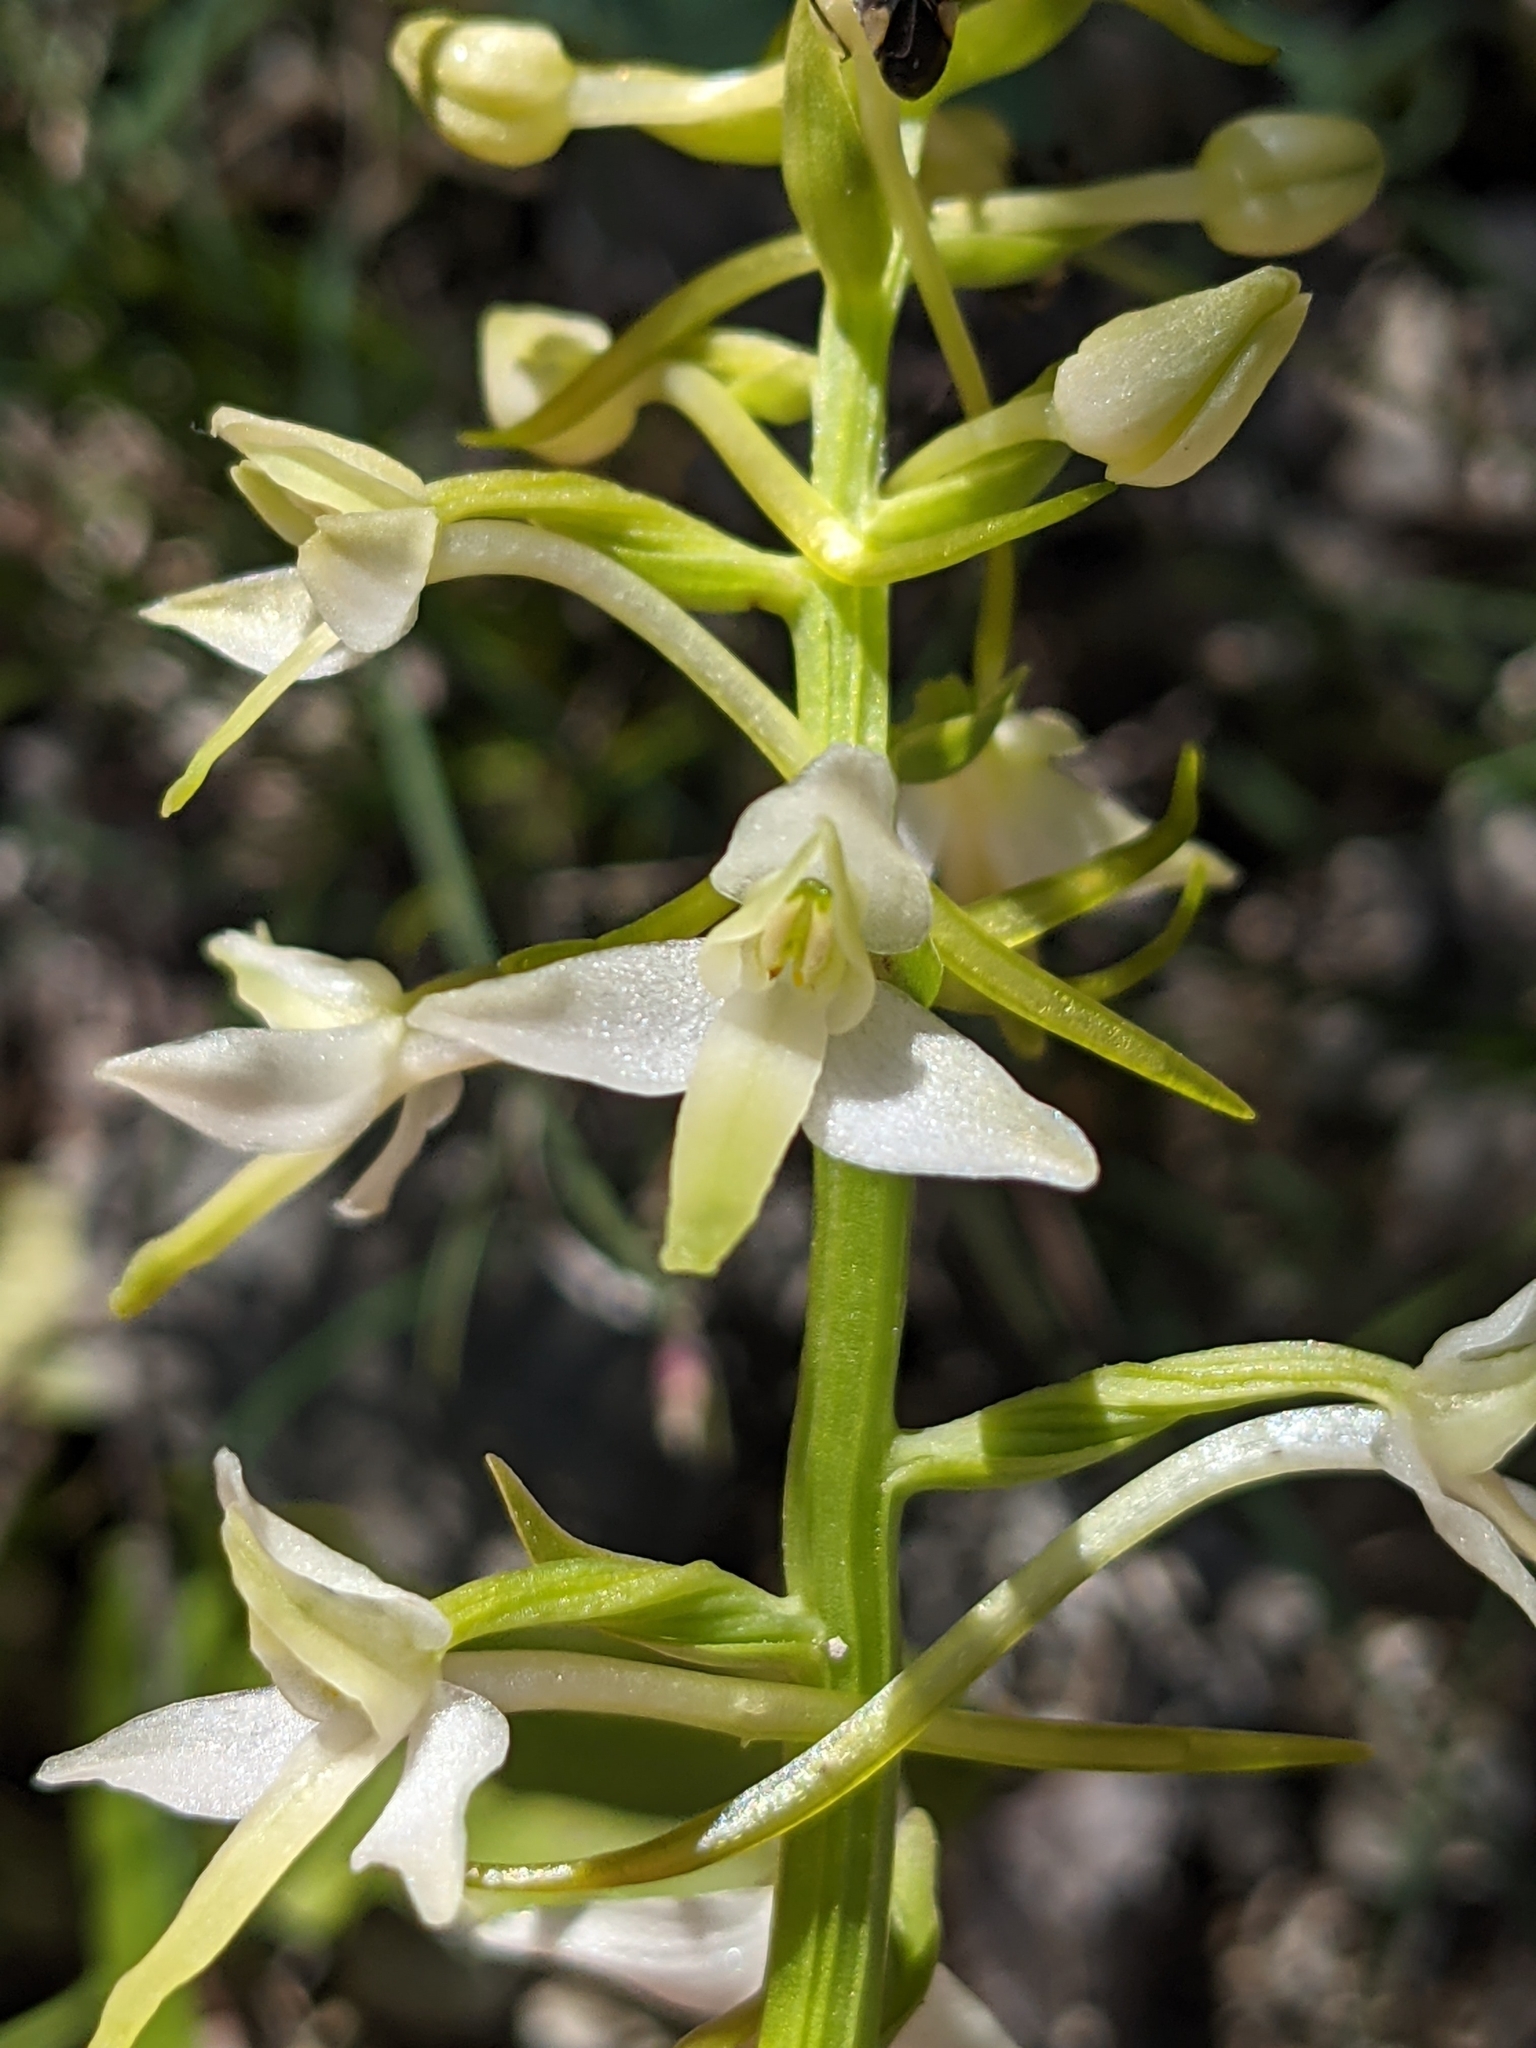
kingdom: Plantae
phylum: Tracheophyta
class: Liliopsida
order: Asparagales
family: Orchidaceae
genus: Platanthera
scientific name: Platanthera bifolia
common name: Lesser butterfly-orchid
